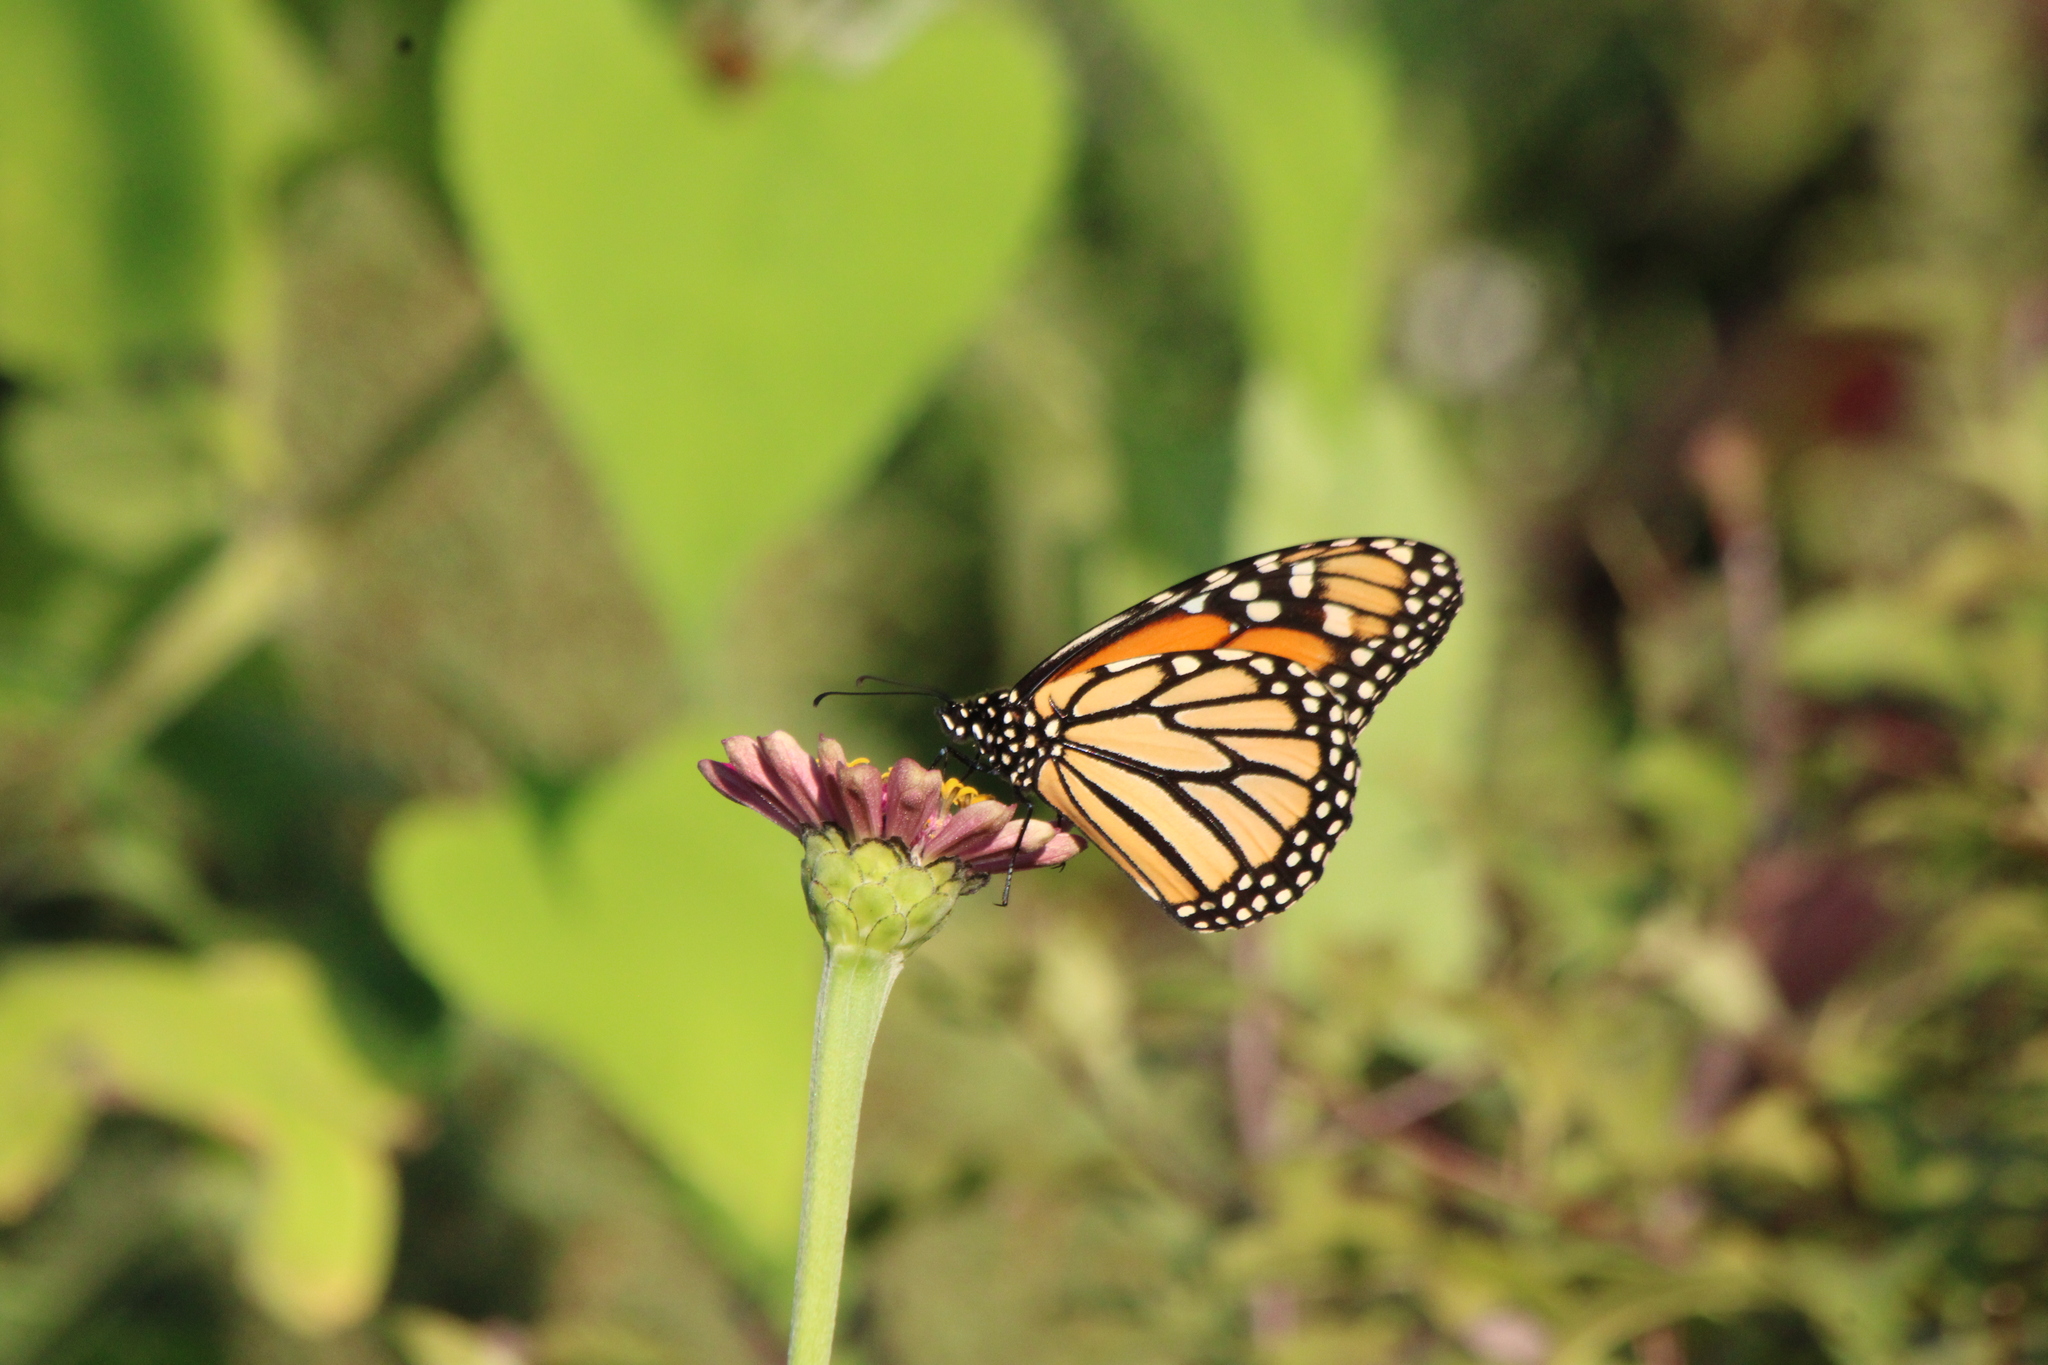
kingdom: Animalia
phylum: Arthropoda
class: Insecta
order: Lepidoptera
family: Nymphalidae
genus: Danaus
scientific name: Danaus plexippus
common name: Monarch
